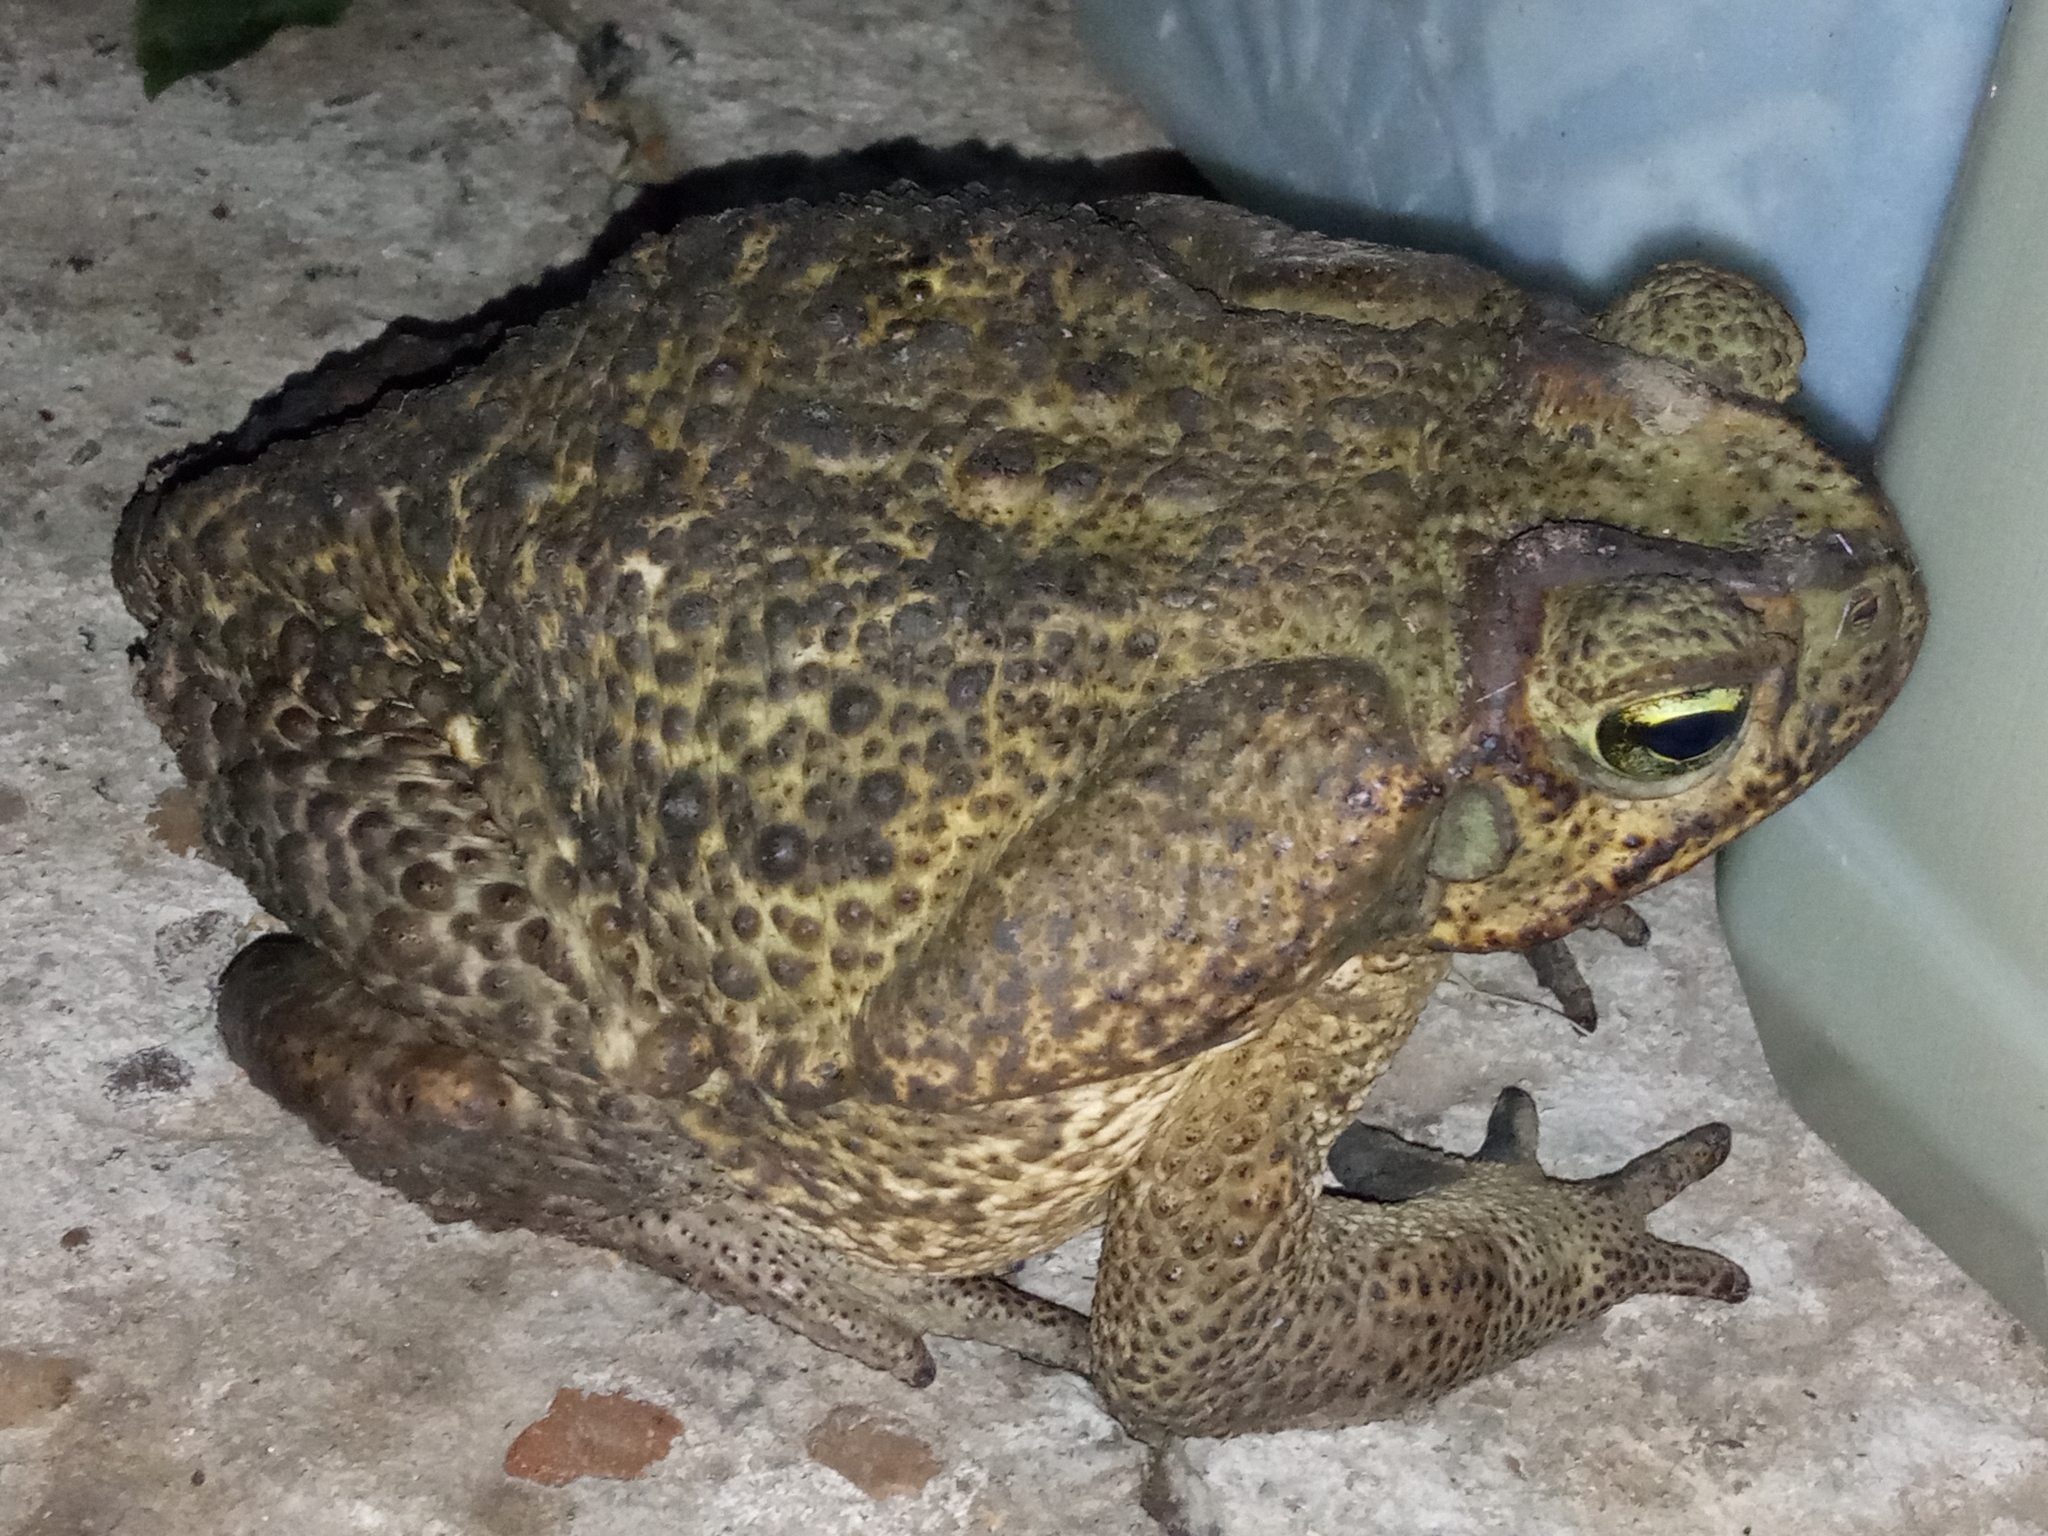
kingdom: Animalia
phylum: Chordata
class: Amphibia
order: Anura
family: Bufonidae
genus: Rhinella
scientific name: Rhinella diptycha
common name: Cope's toad
